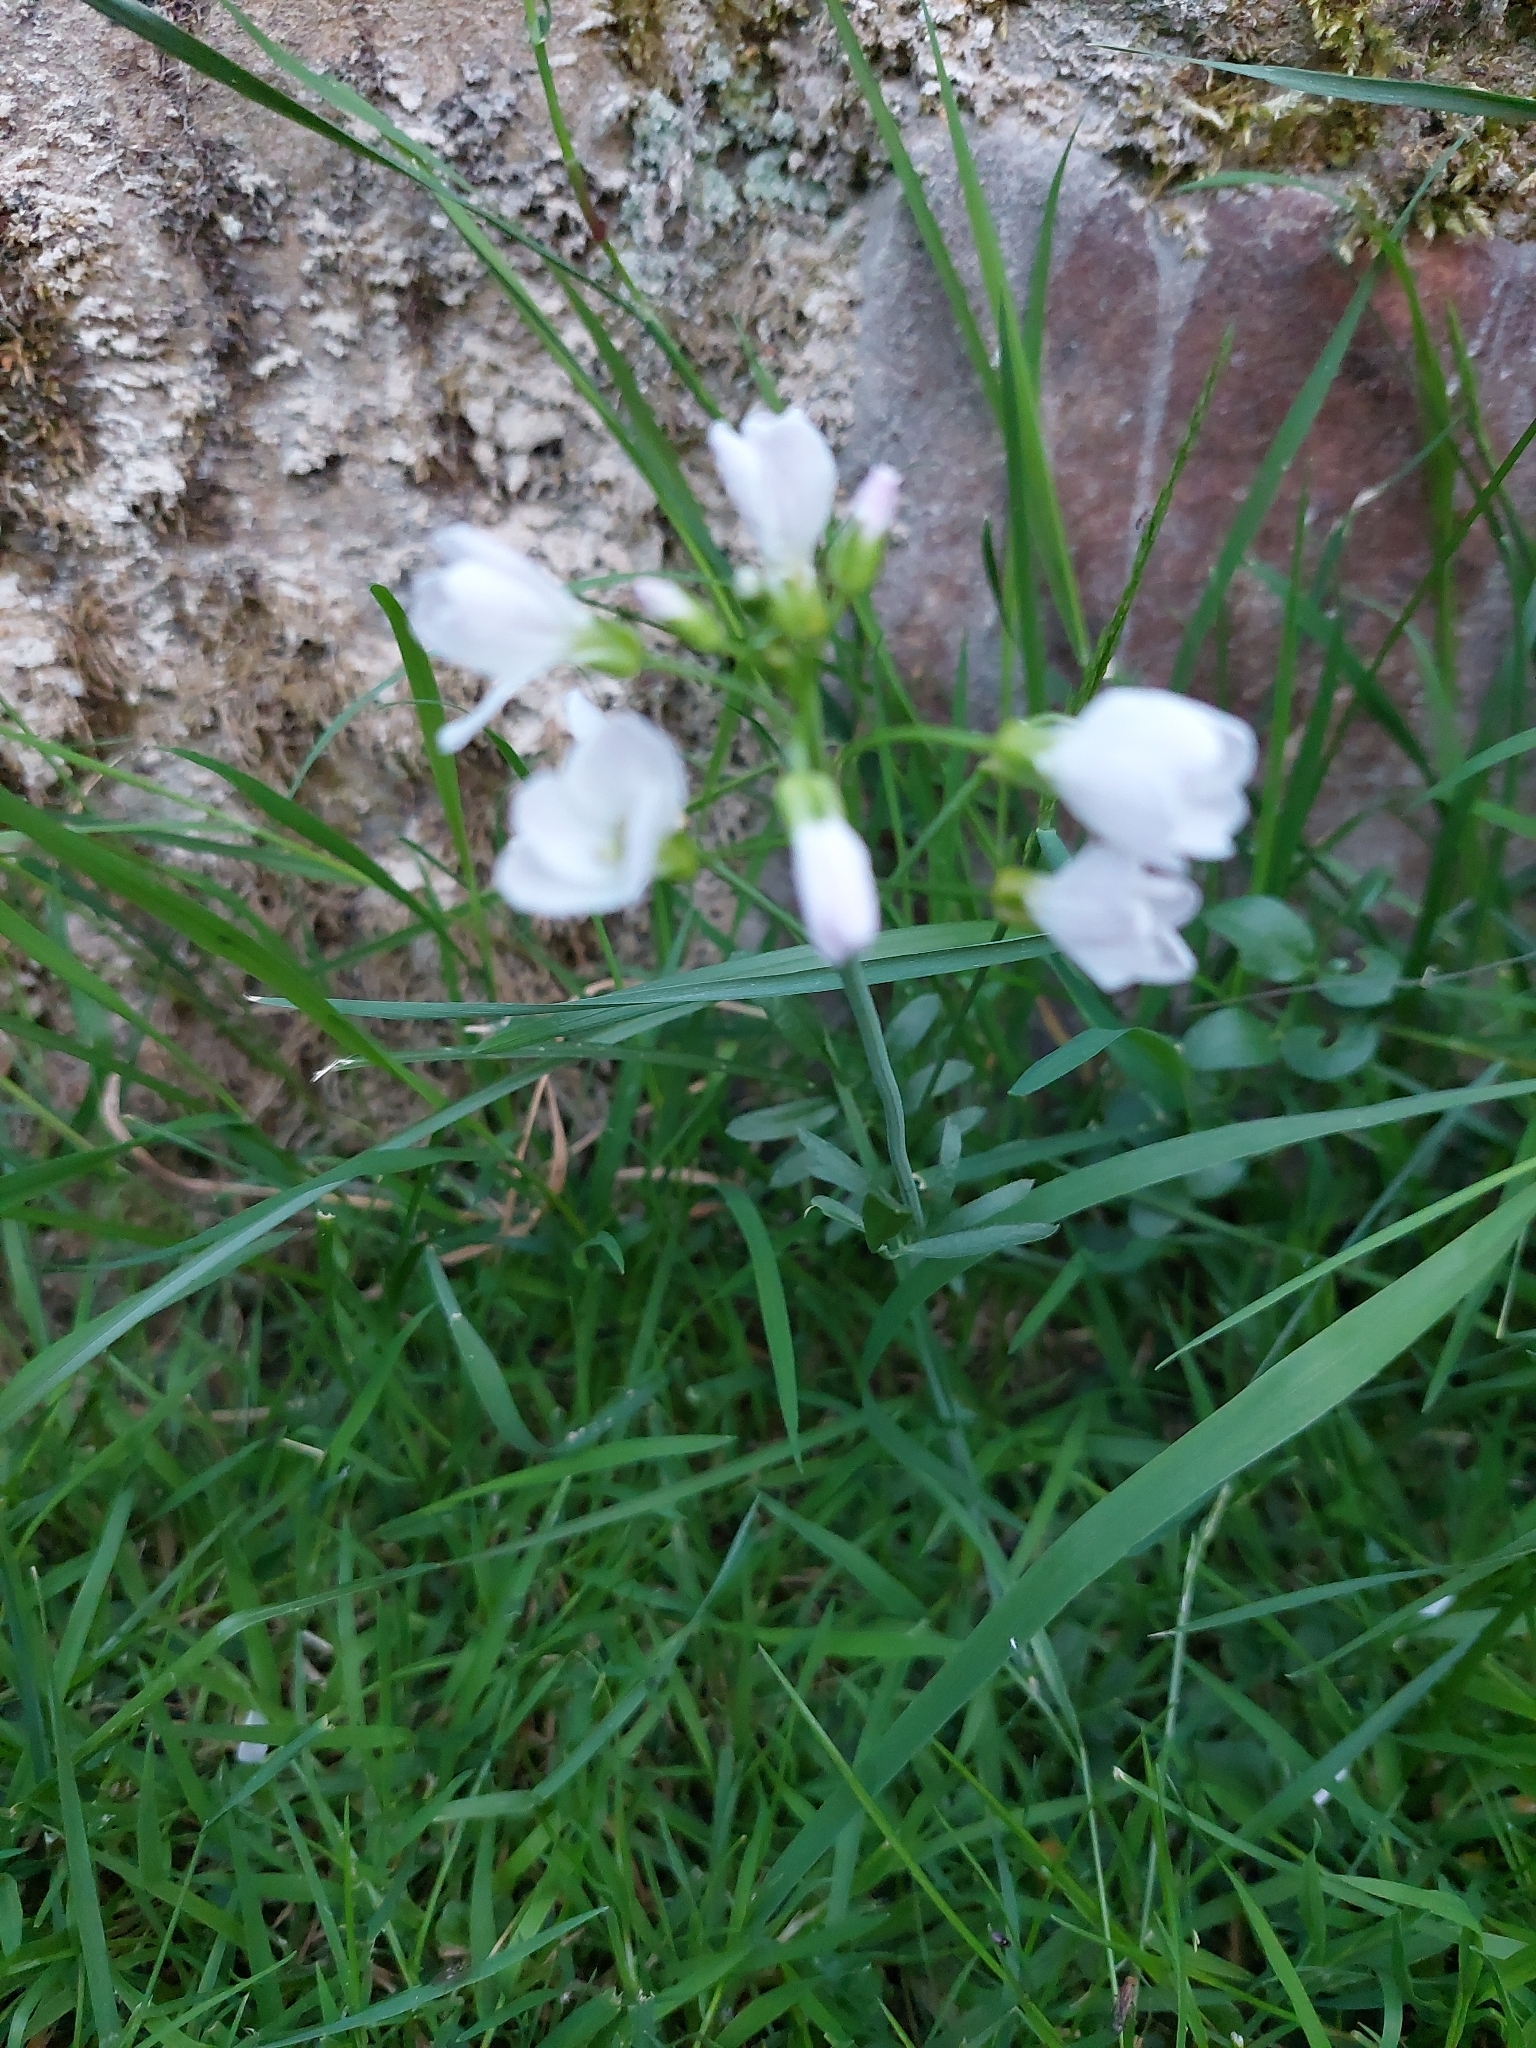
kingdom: Plantae
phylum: Tracheophyta
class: Magnoliopsida
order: Brassicales
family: Brassicaceae
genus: Cardamine
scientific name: Cardamine pratensis
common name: Cuckoo flower
